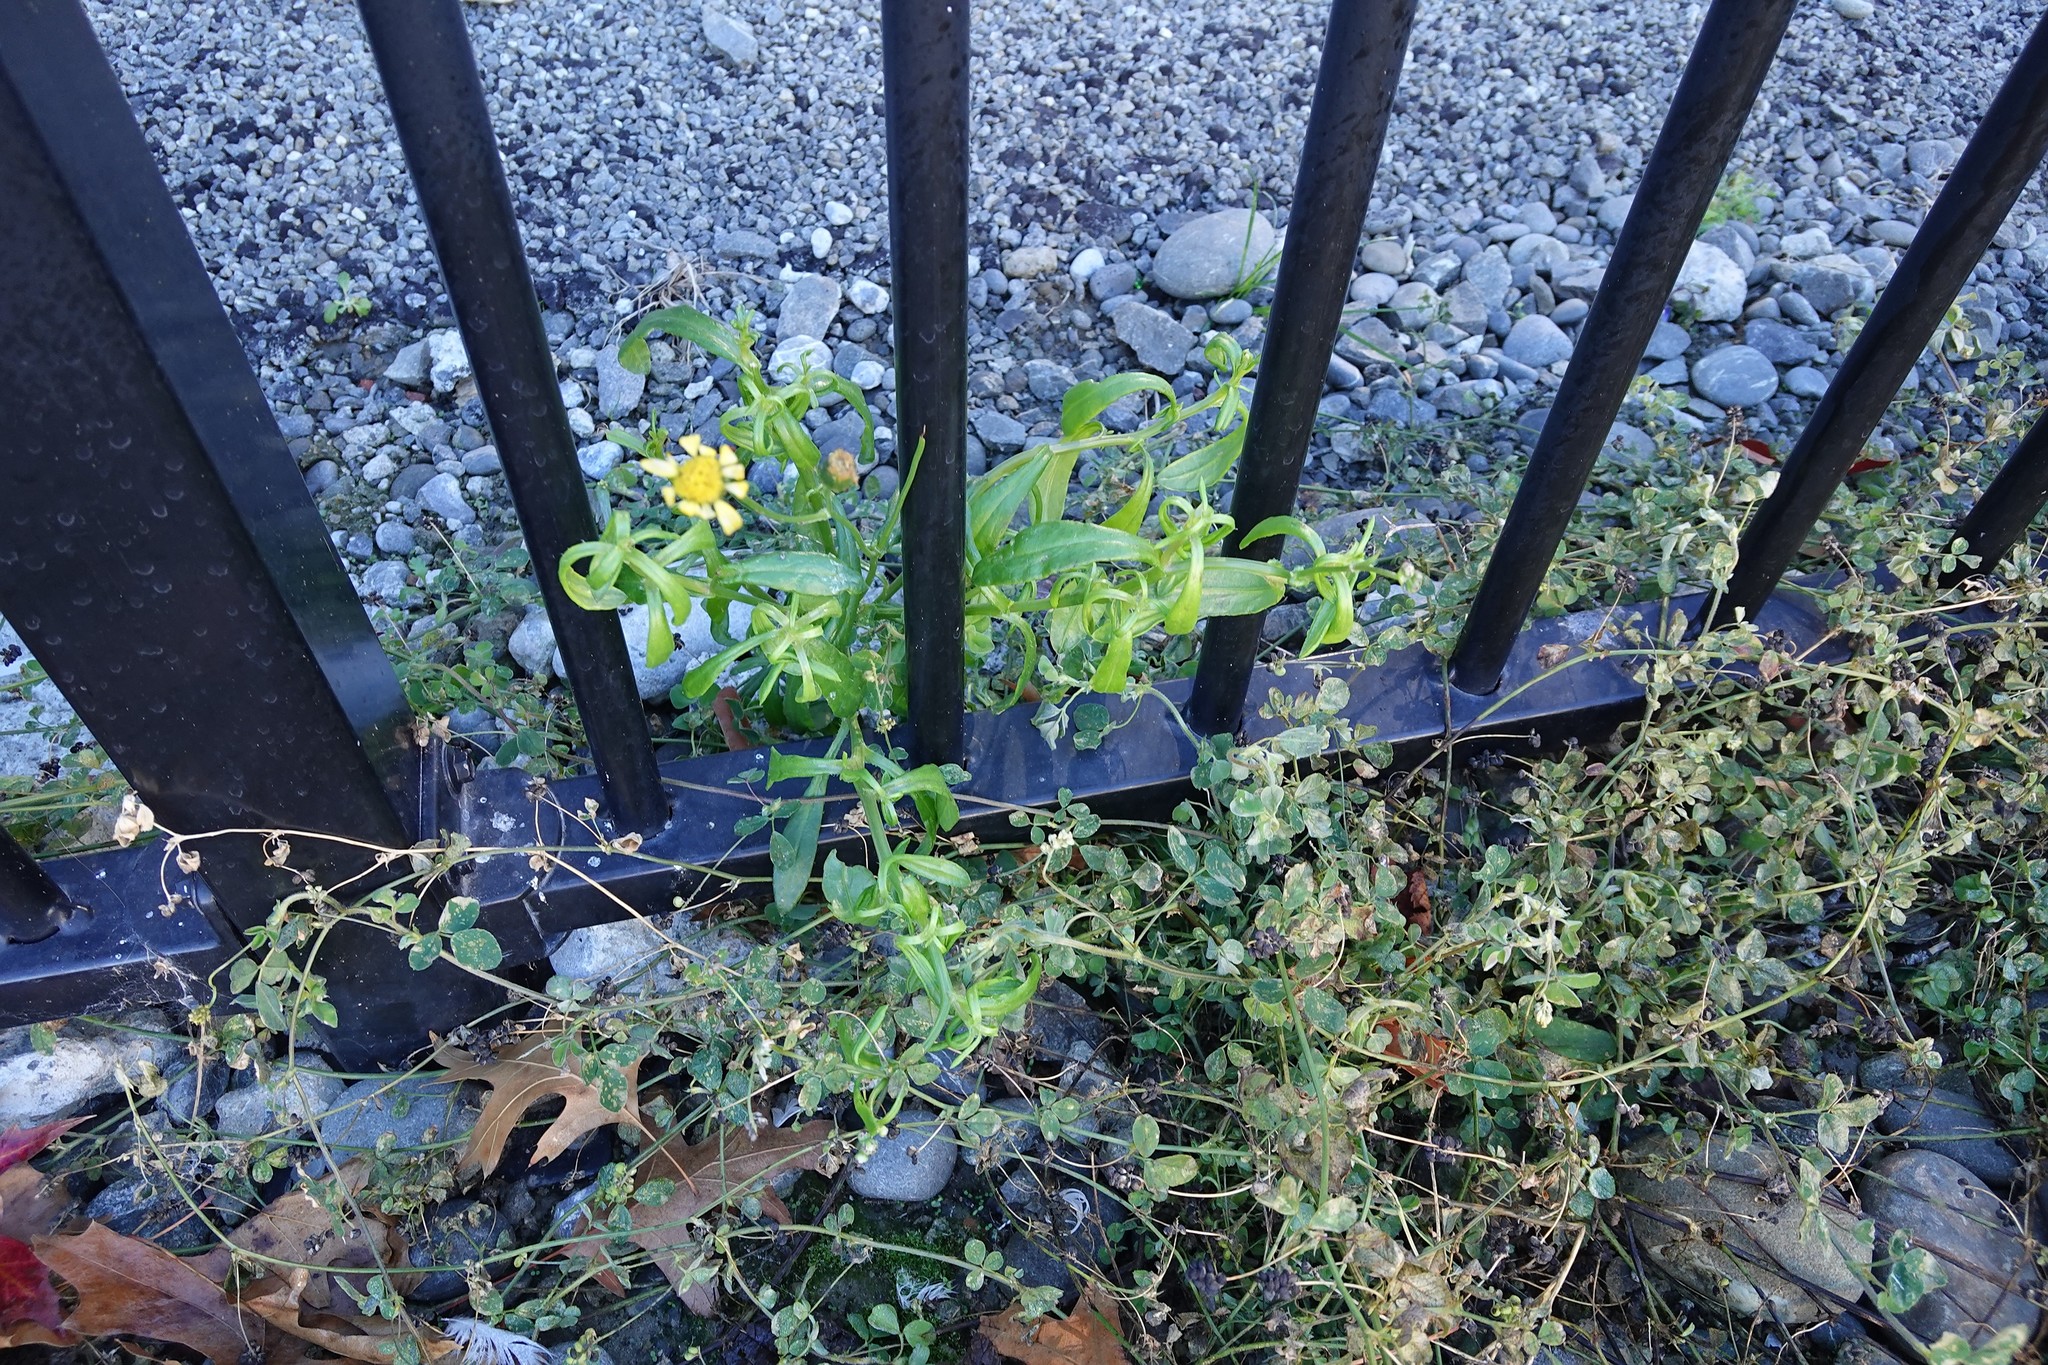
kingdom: Plantae
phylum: Tracheophyta
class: Magnoliopsida
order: Asterales
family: Asteraceae
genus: Senecio
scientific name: Senecio skirrhodon
